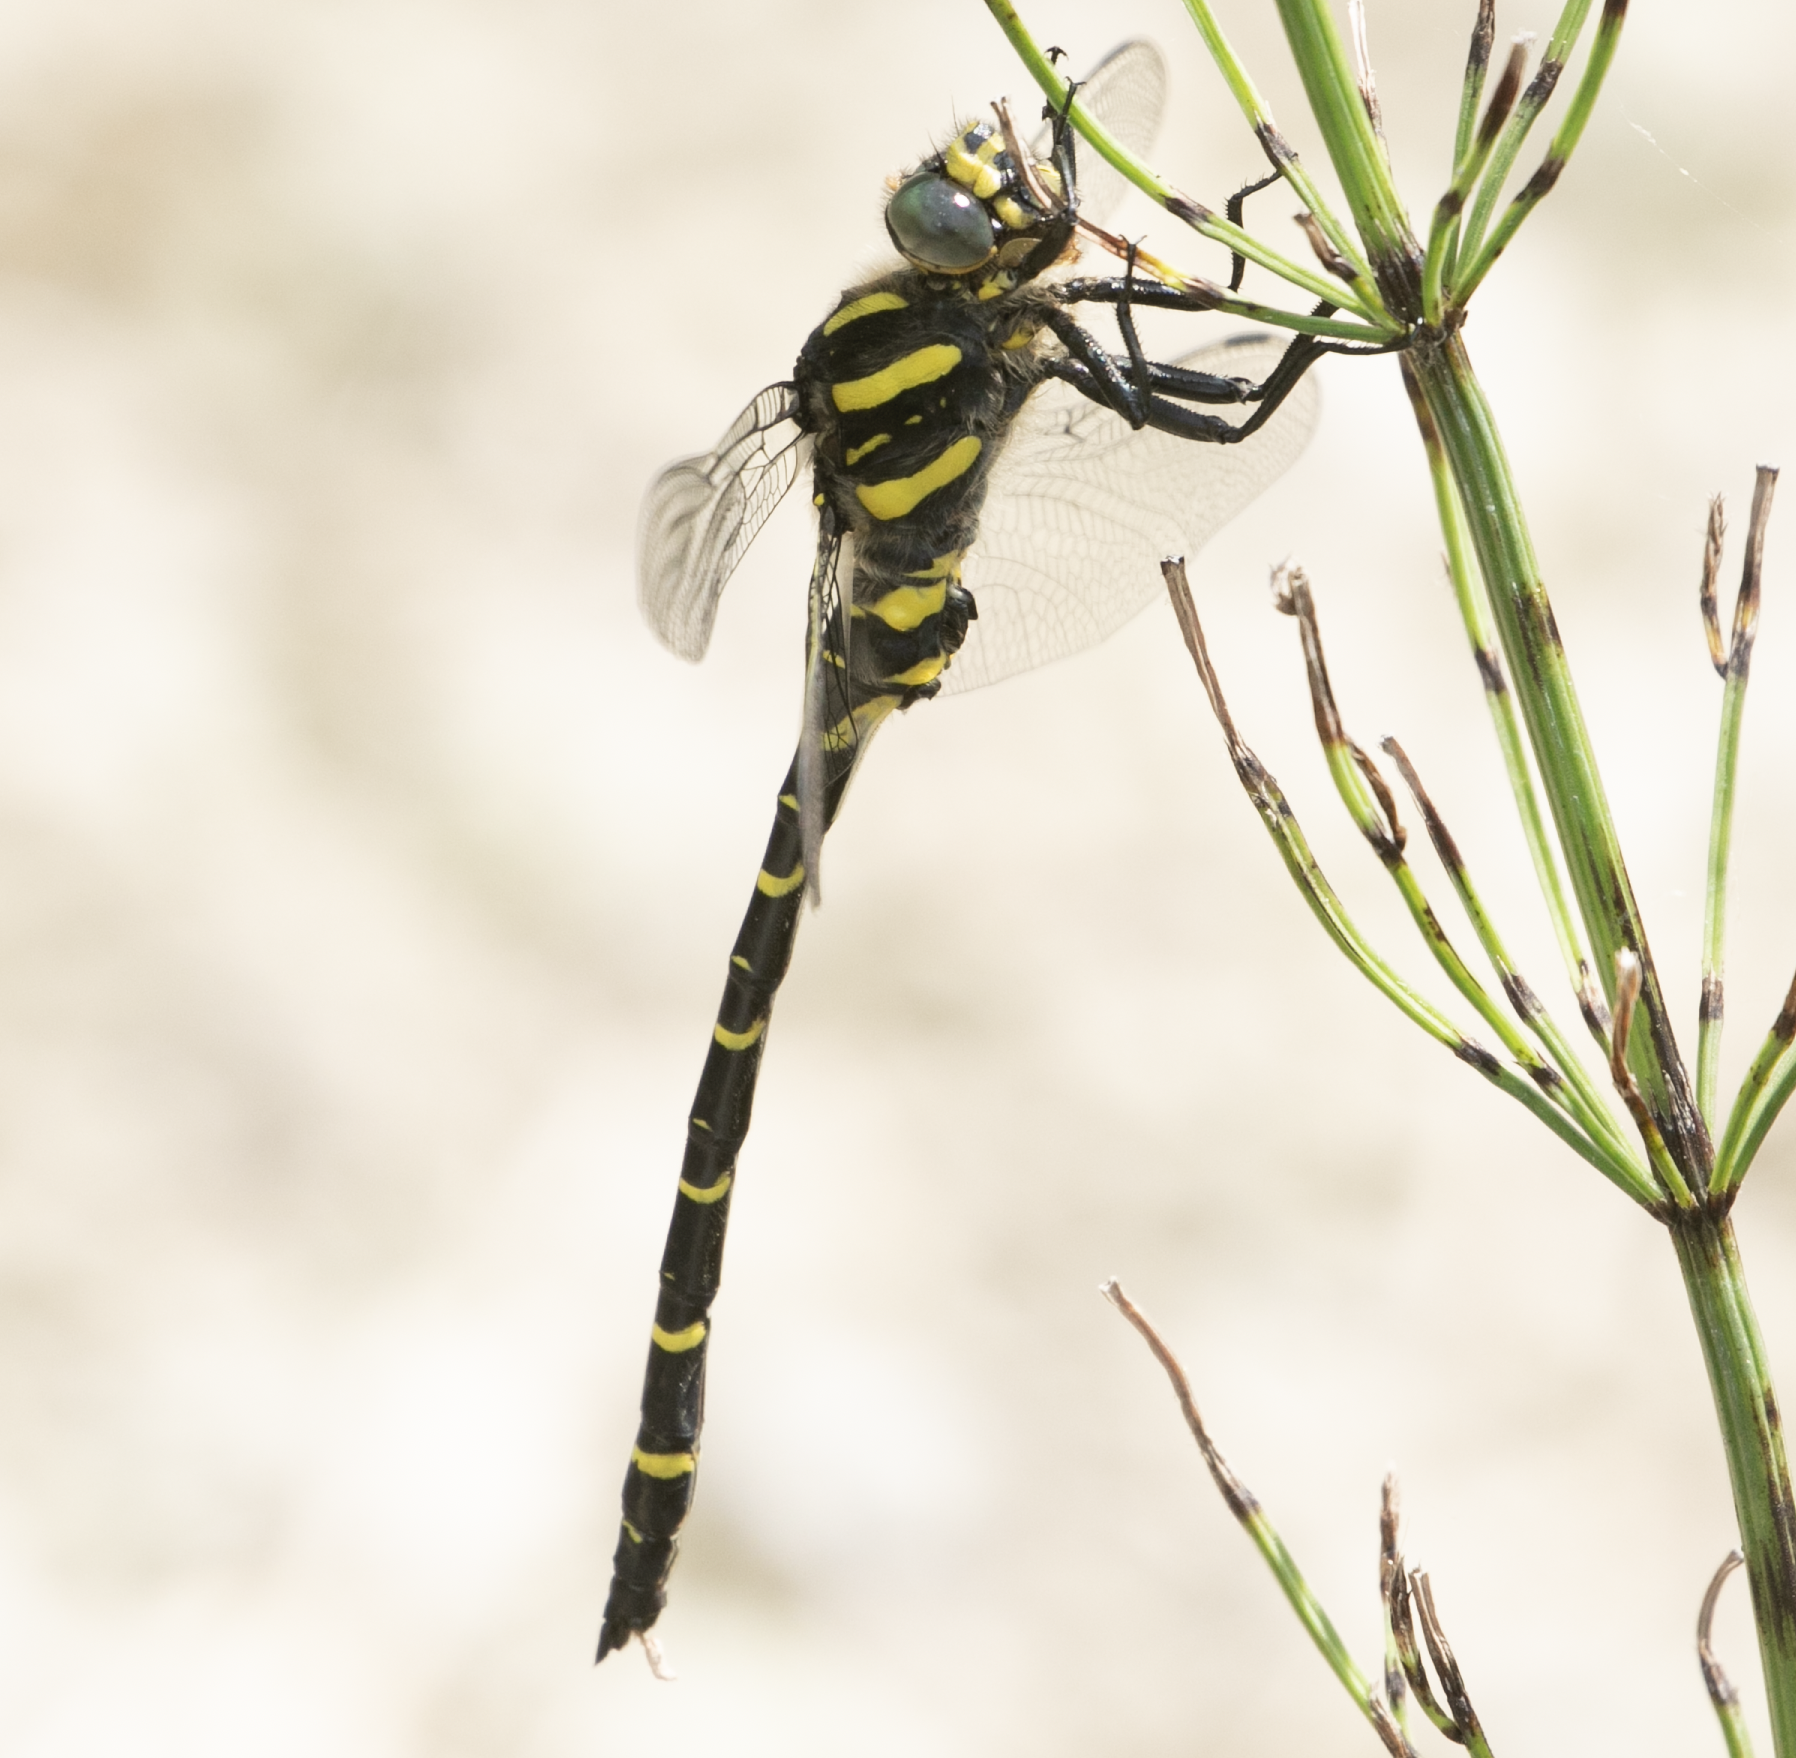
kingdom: Animalia
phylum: Arthropoda
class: Insecta
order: Odonata
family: Cordulegastridae
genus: Cordulegaster
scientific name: Cordulegaster boltonii
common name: Golden-ringed dragonfly
